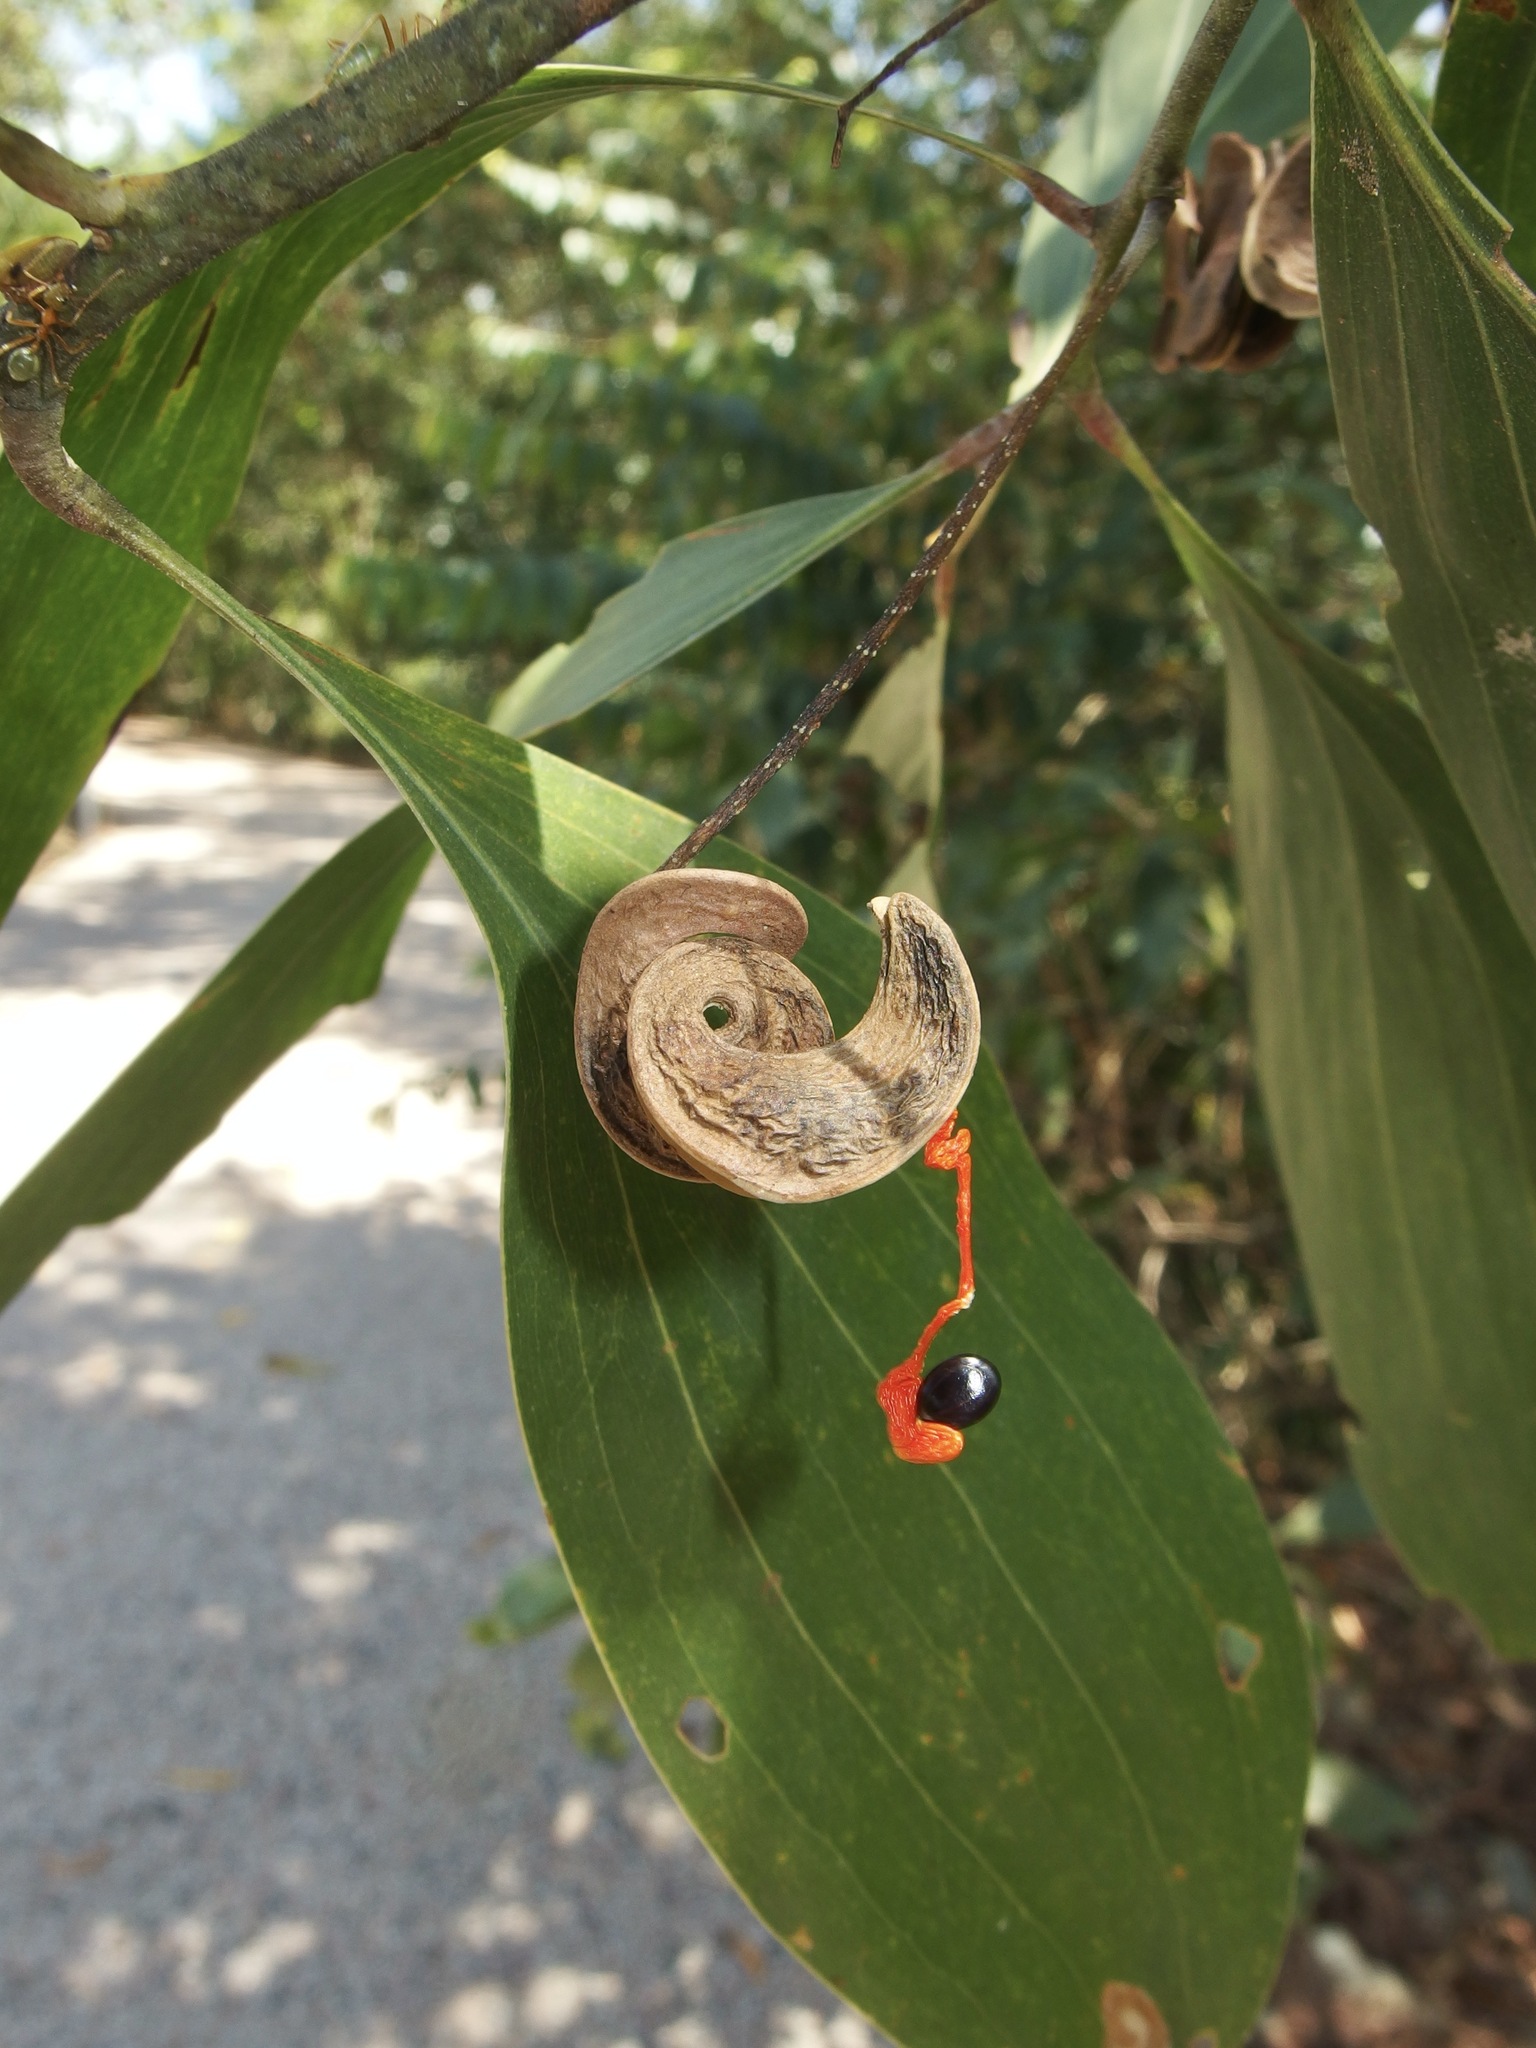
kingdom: Plantae
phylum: Tracheophyta
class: Magnoliopsida
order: Fabales
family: Fabaceae
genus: Acacia
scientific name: Acacia mangium
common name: Black wattle
